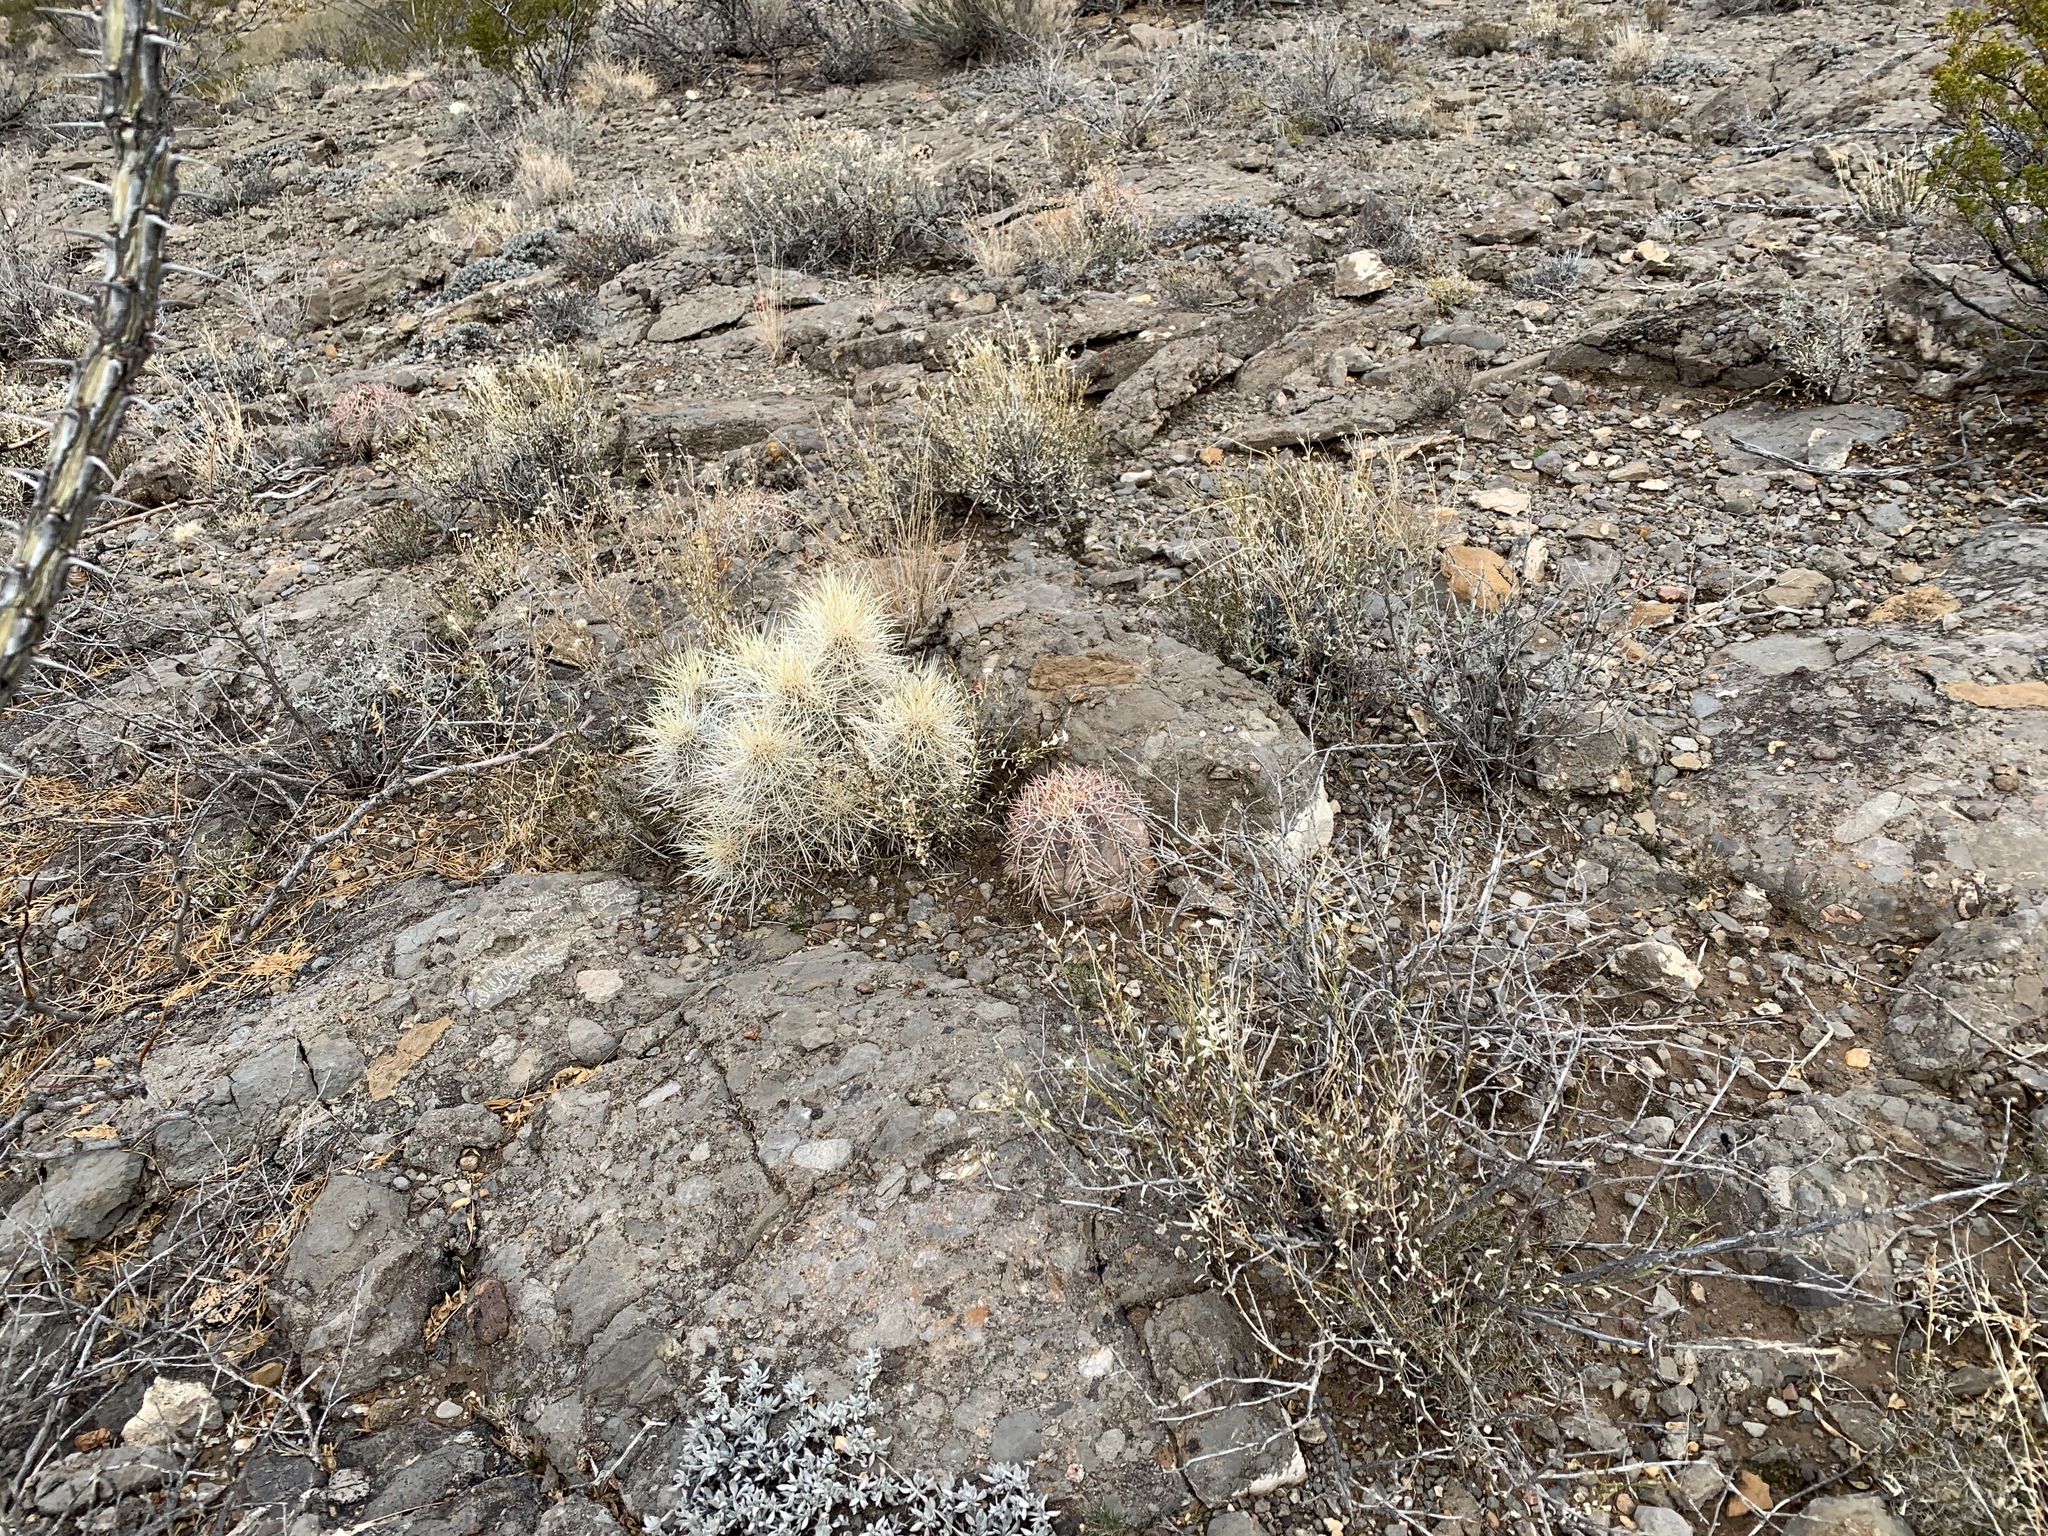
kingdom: Plantae
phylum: Tracheophyta
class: Magnoliopsida
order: Caryophyllales
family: Cactaceae
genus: Echinocereus
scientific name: Echinocereus stramineus
